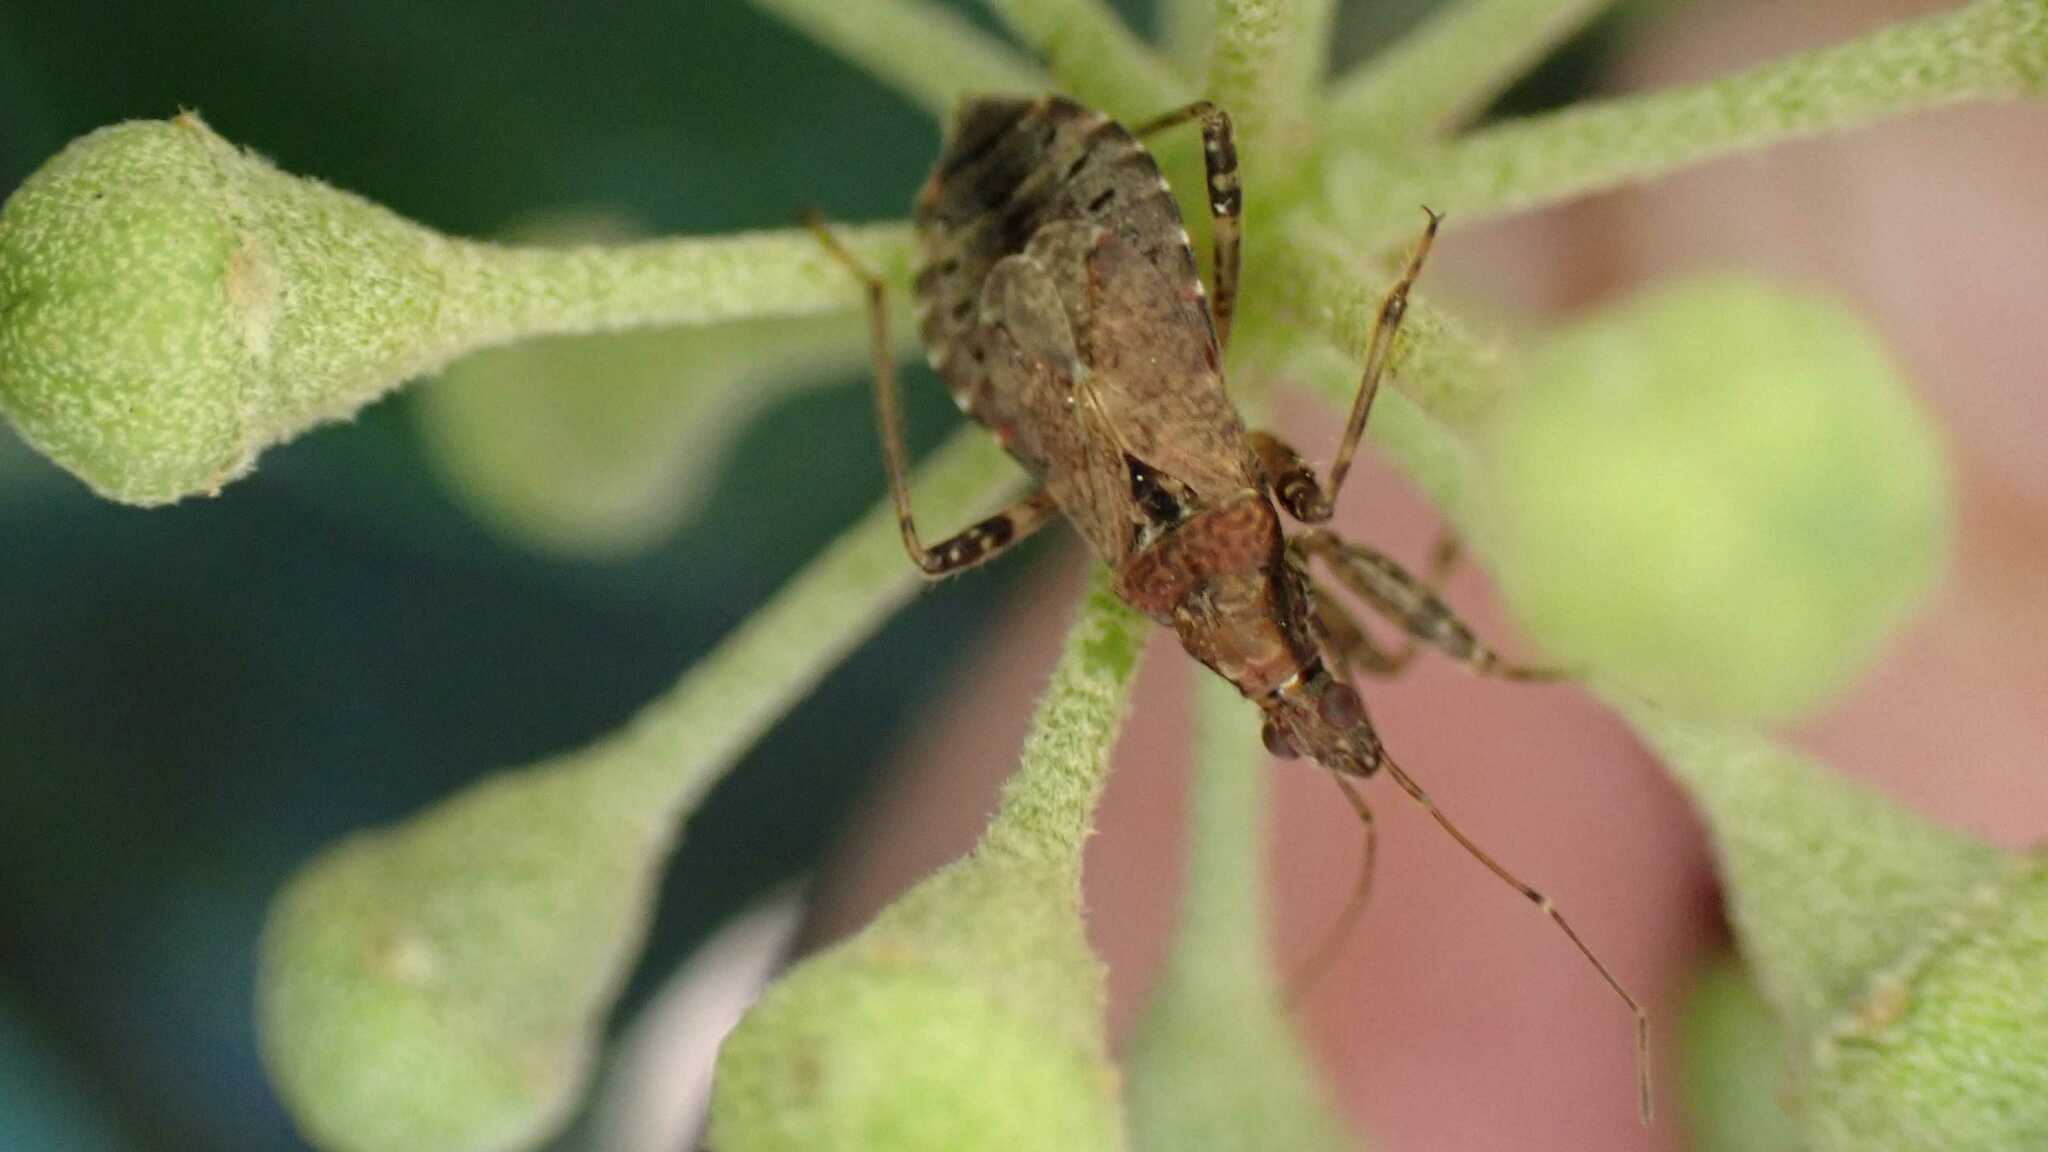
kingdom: Animalia
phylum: Arthropoda
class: Insecta
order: Hemiptera
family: Nabidae
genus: Himacerus
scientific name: Himacerus mirmicoides
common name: Ant damsel bug
